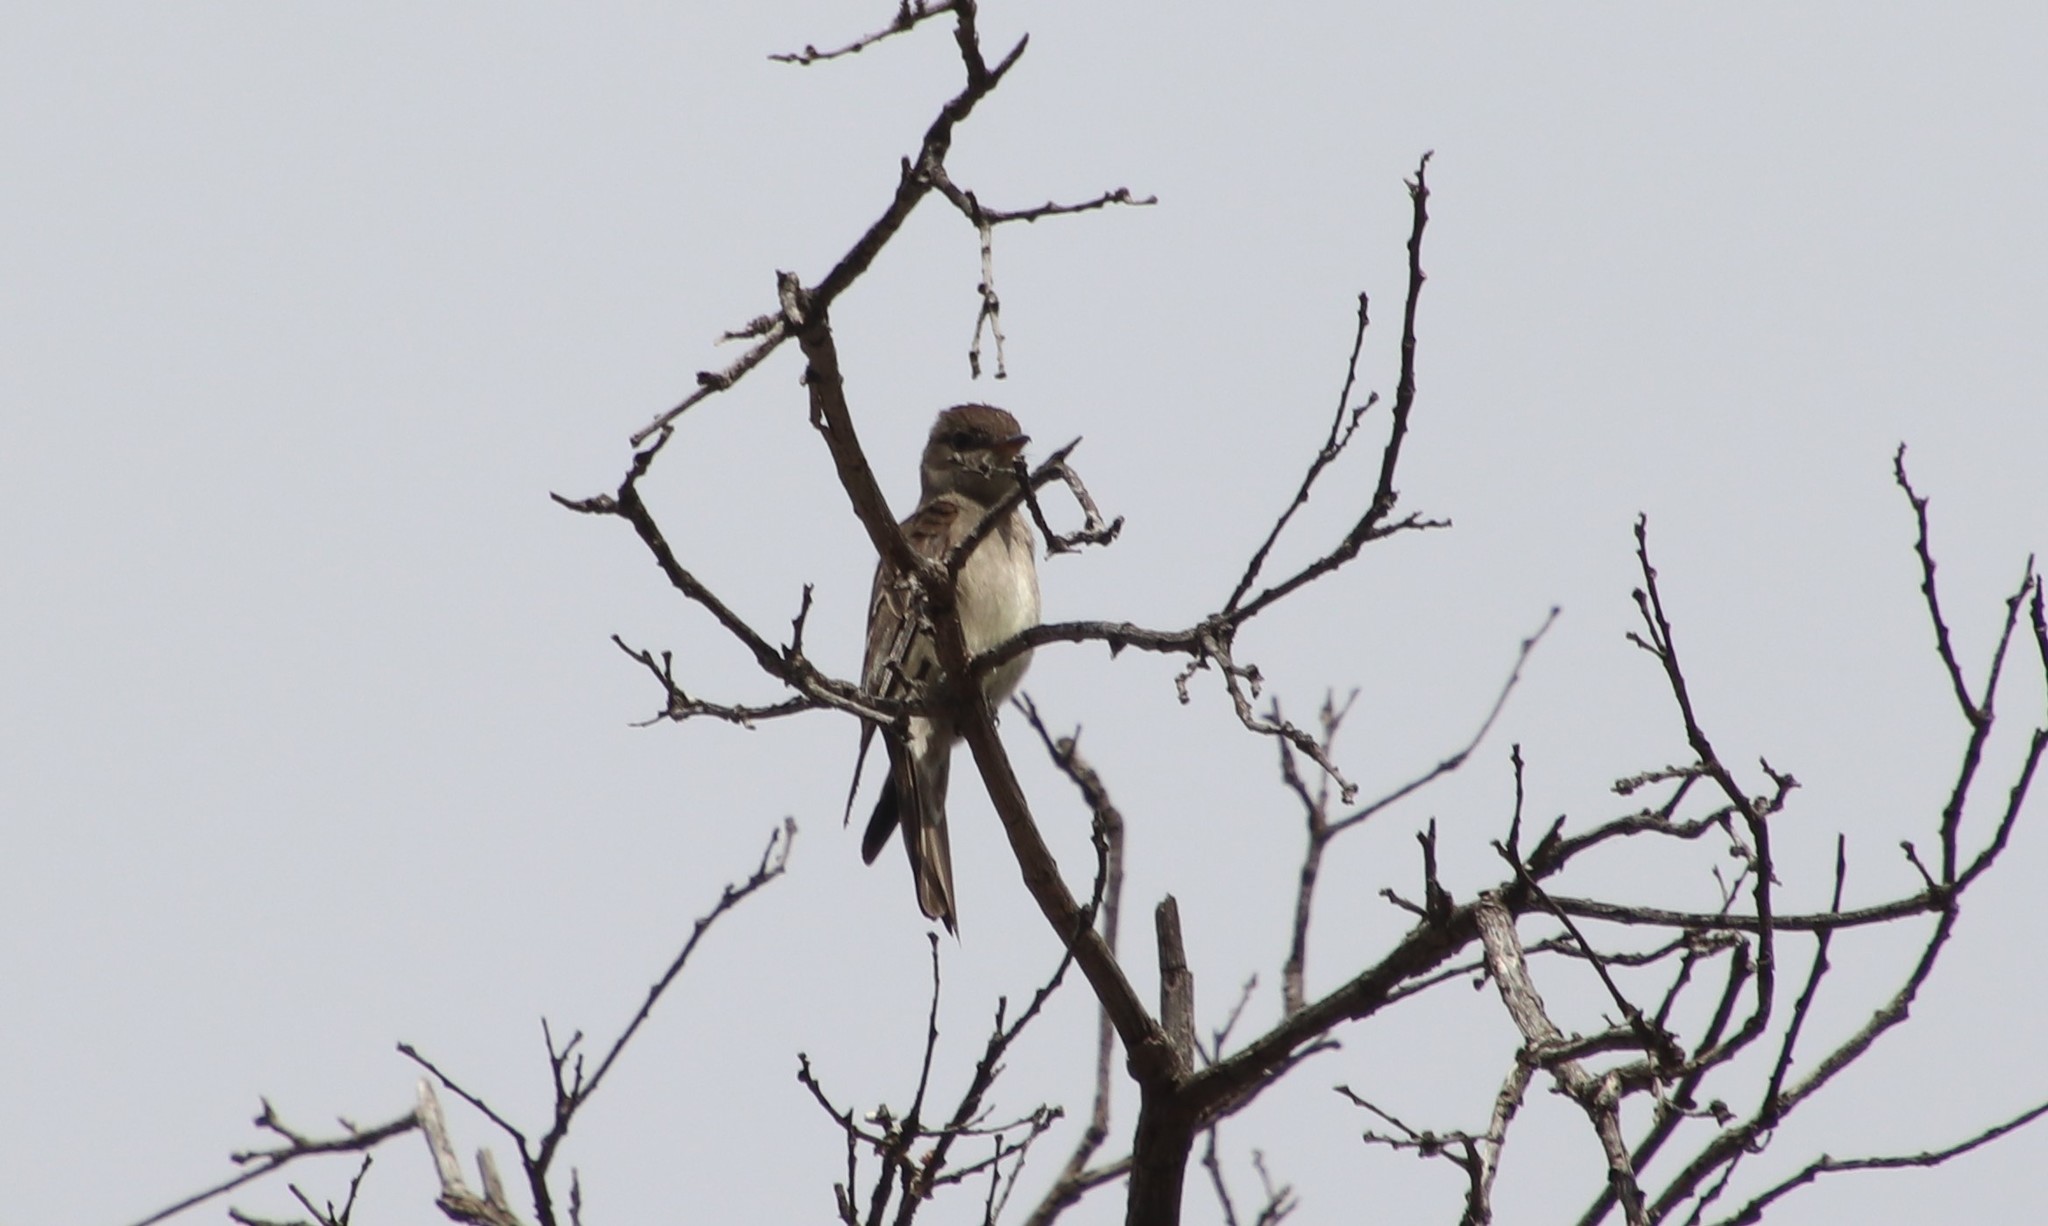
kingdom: Animalia
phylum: Chordata
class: Aves
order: Passeriformes
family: Tyrannidae
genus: Contopus
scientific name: Contopus sordidulus
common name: Western wood-pewee
